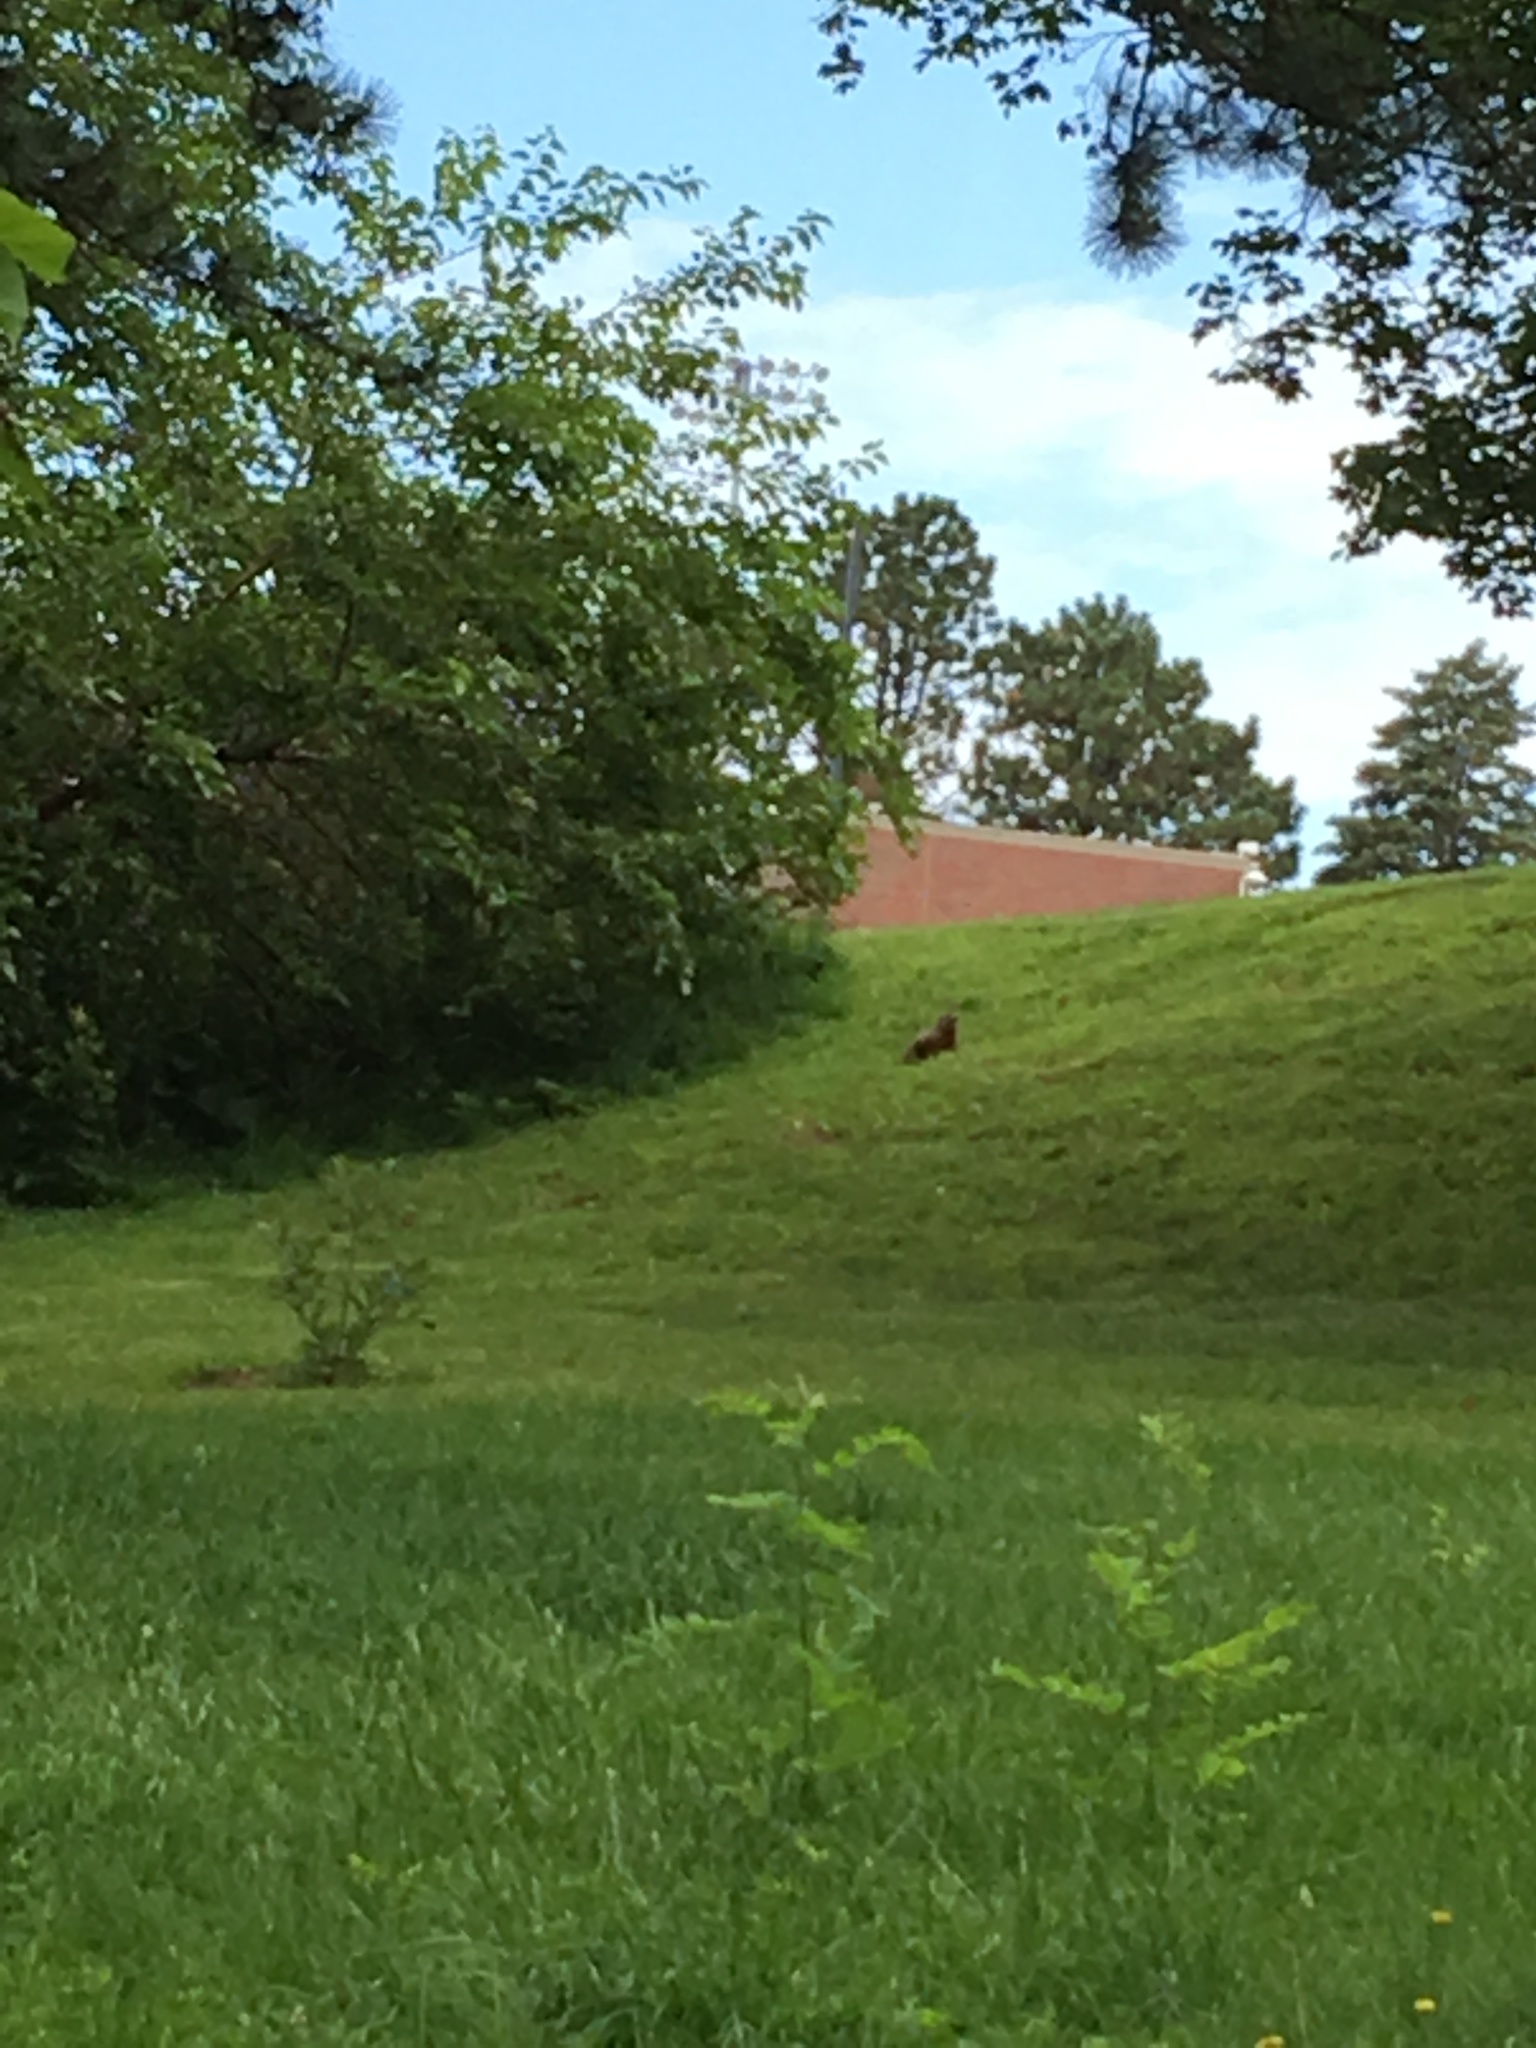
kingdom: Animalia
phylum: Chordata
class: Mammalia
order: Rodentia
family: Sciuridae
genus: Marmota
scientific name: Marmota monax
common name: Groundhog
